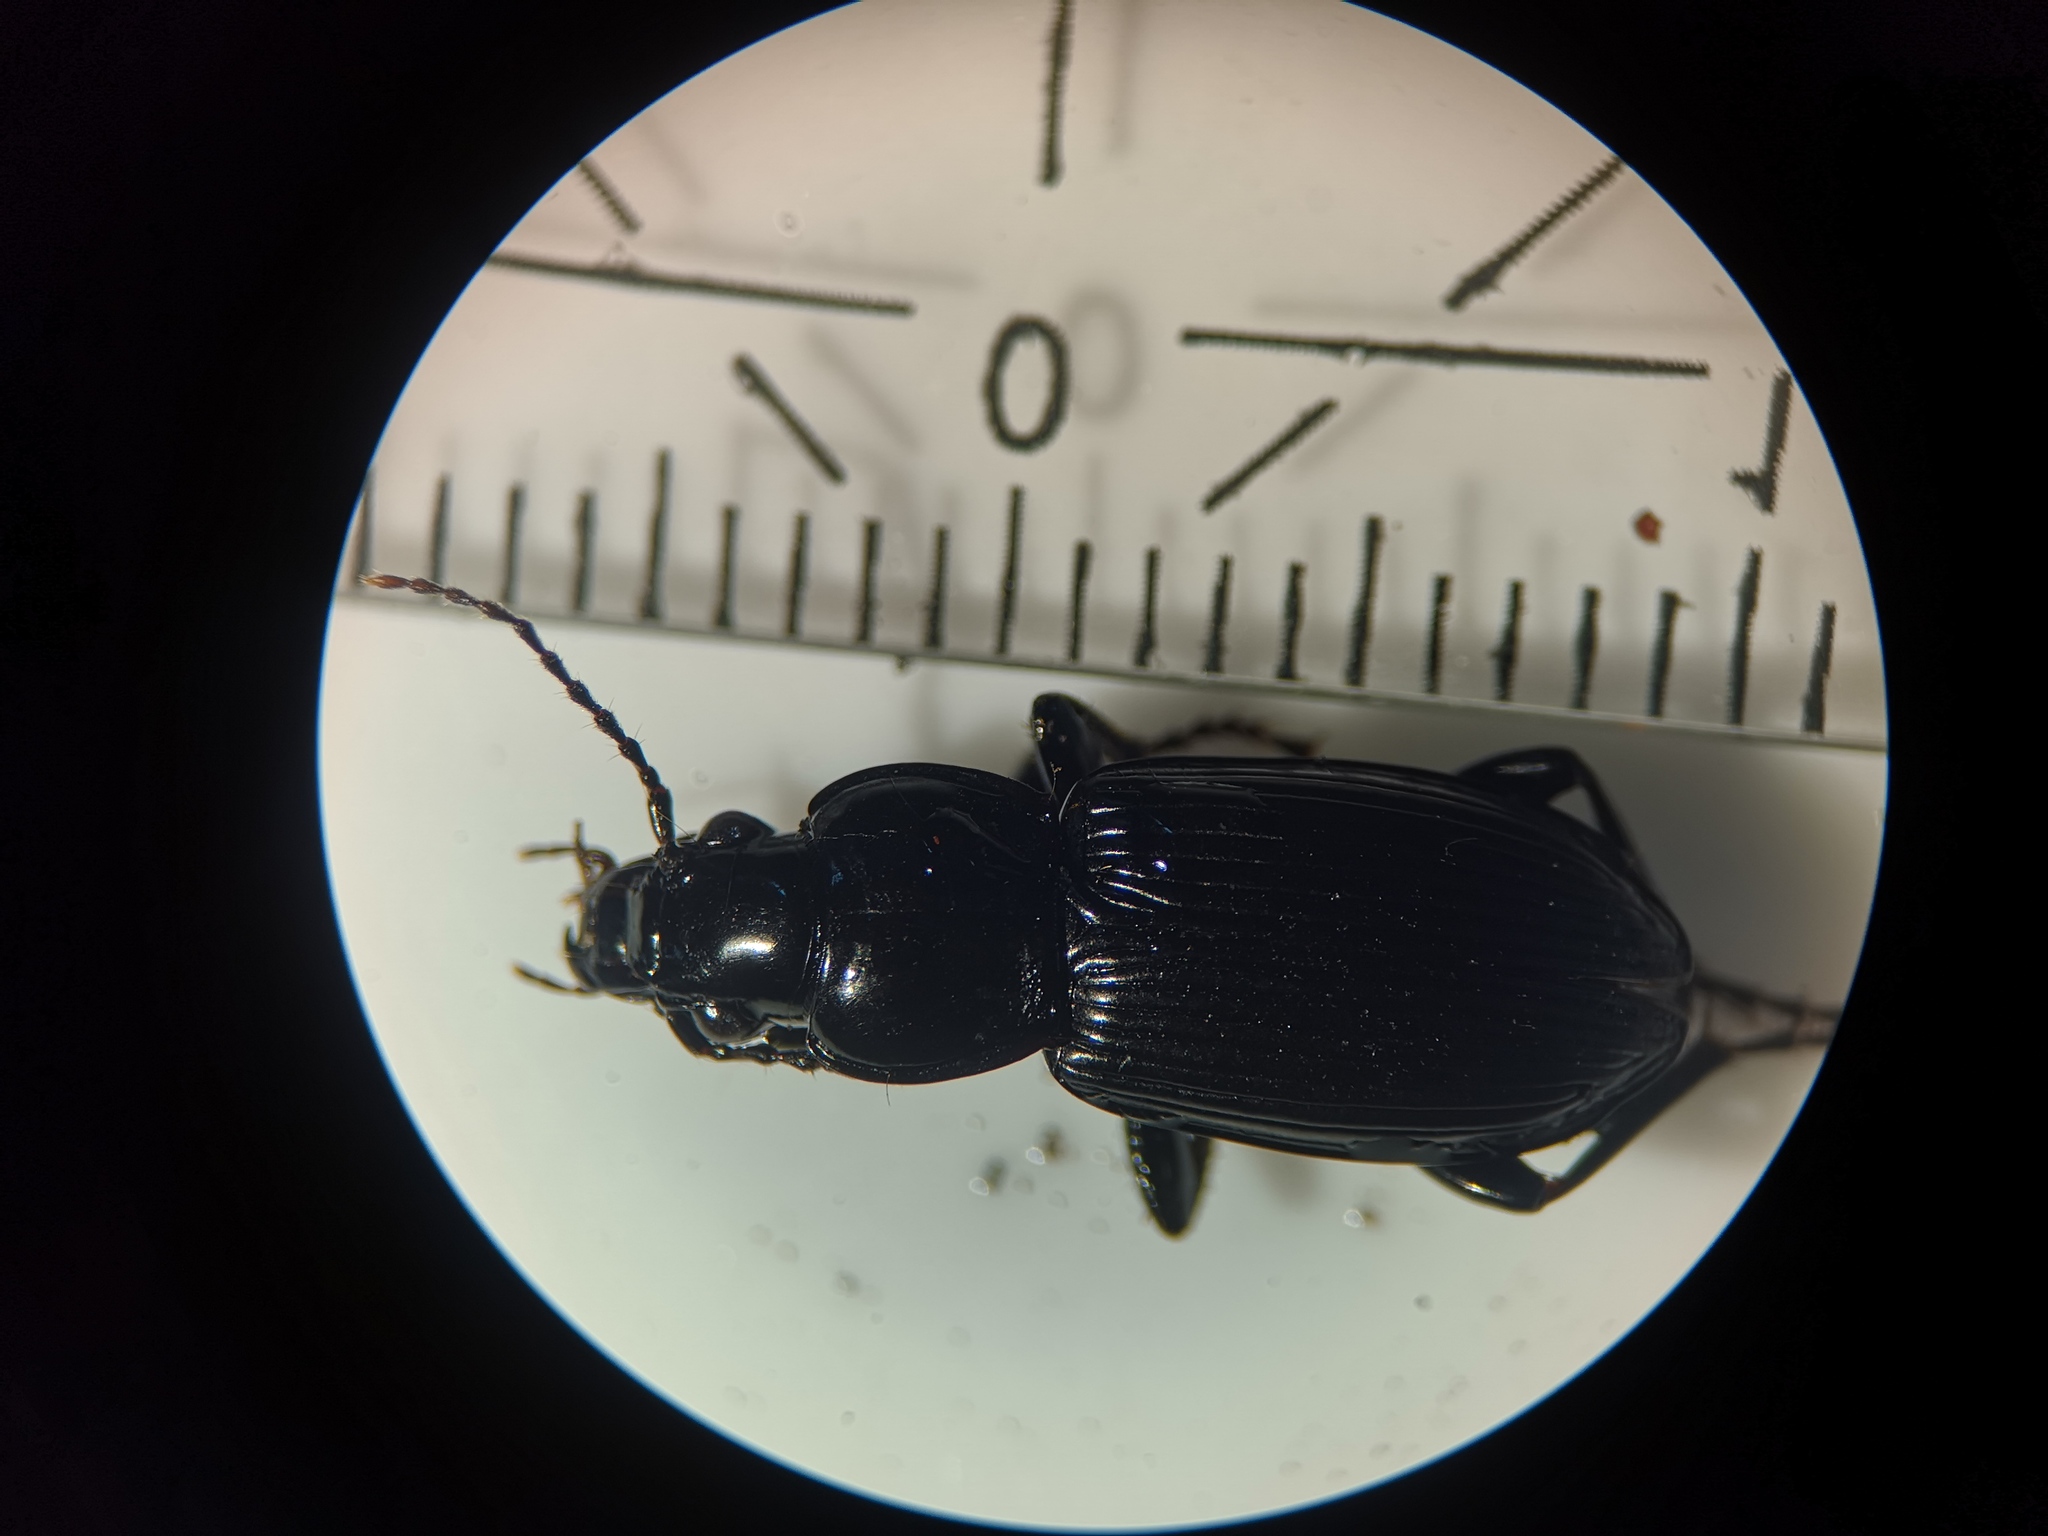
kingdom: Animalia
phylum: Arthropoda
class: Insecta
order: Coleoptera
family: Carabidae
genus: Pterostichus
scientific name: Pterostichus melanarius
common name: European dark harp ground beetle
